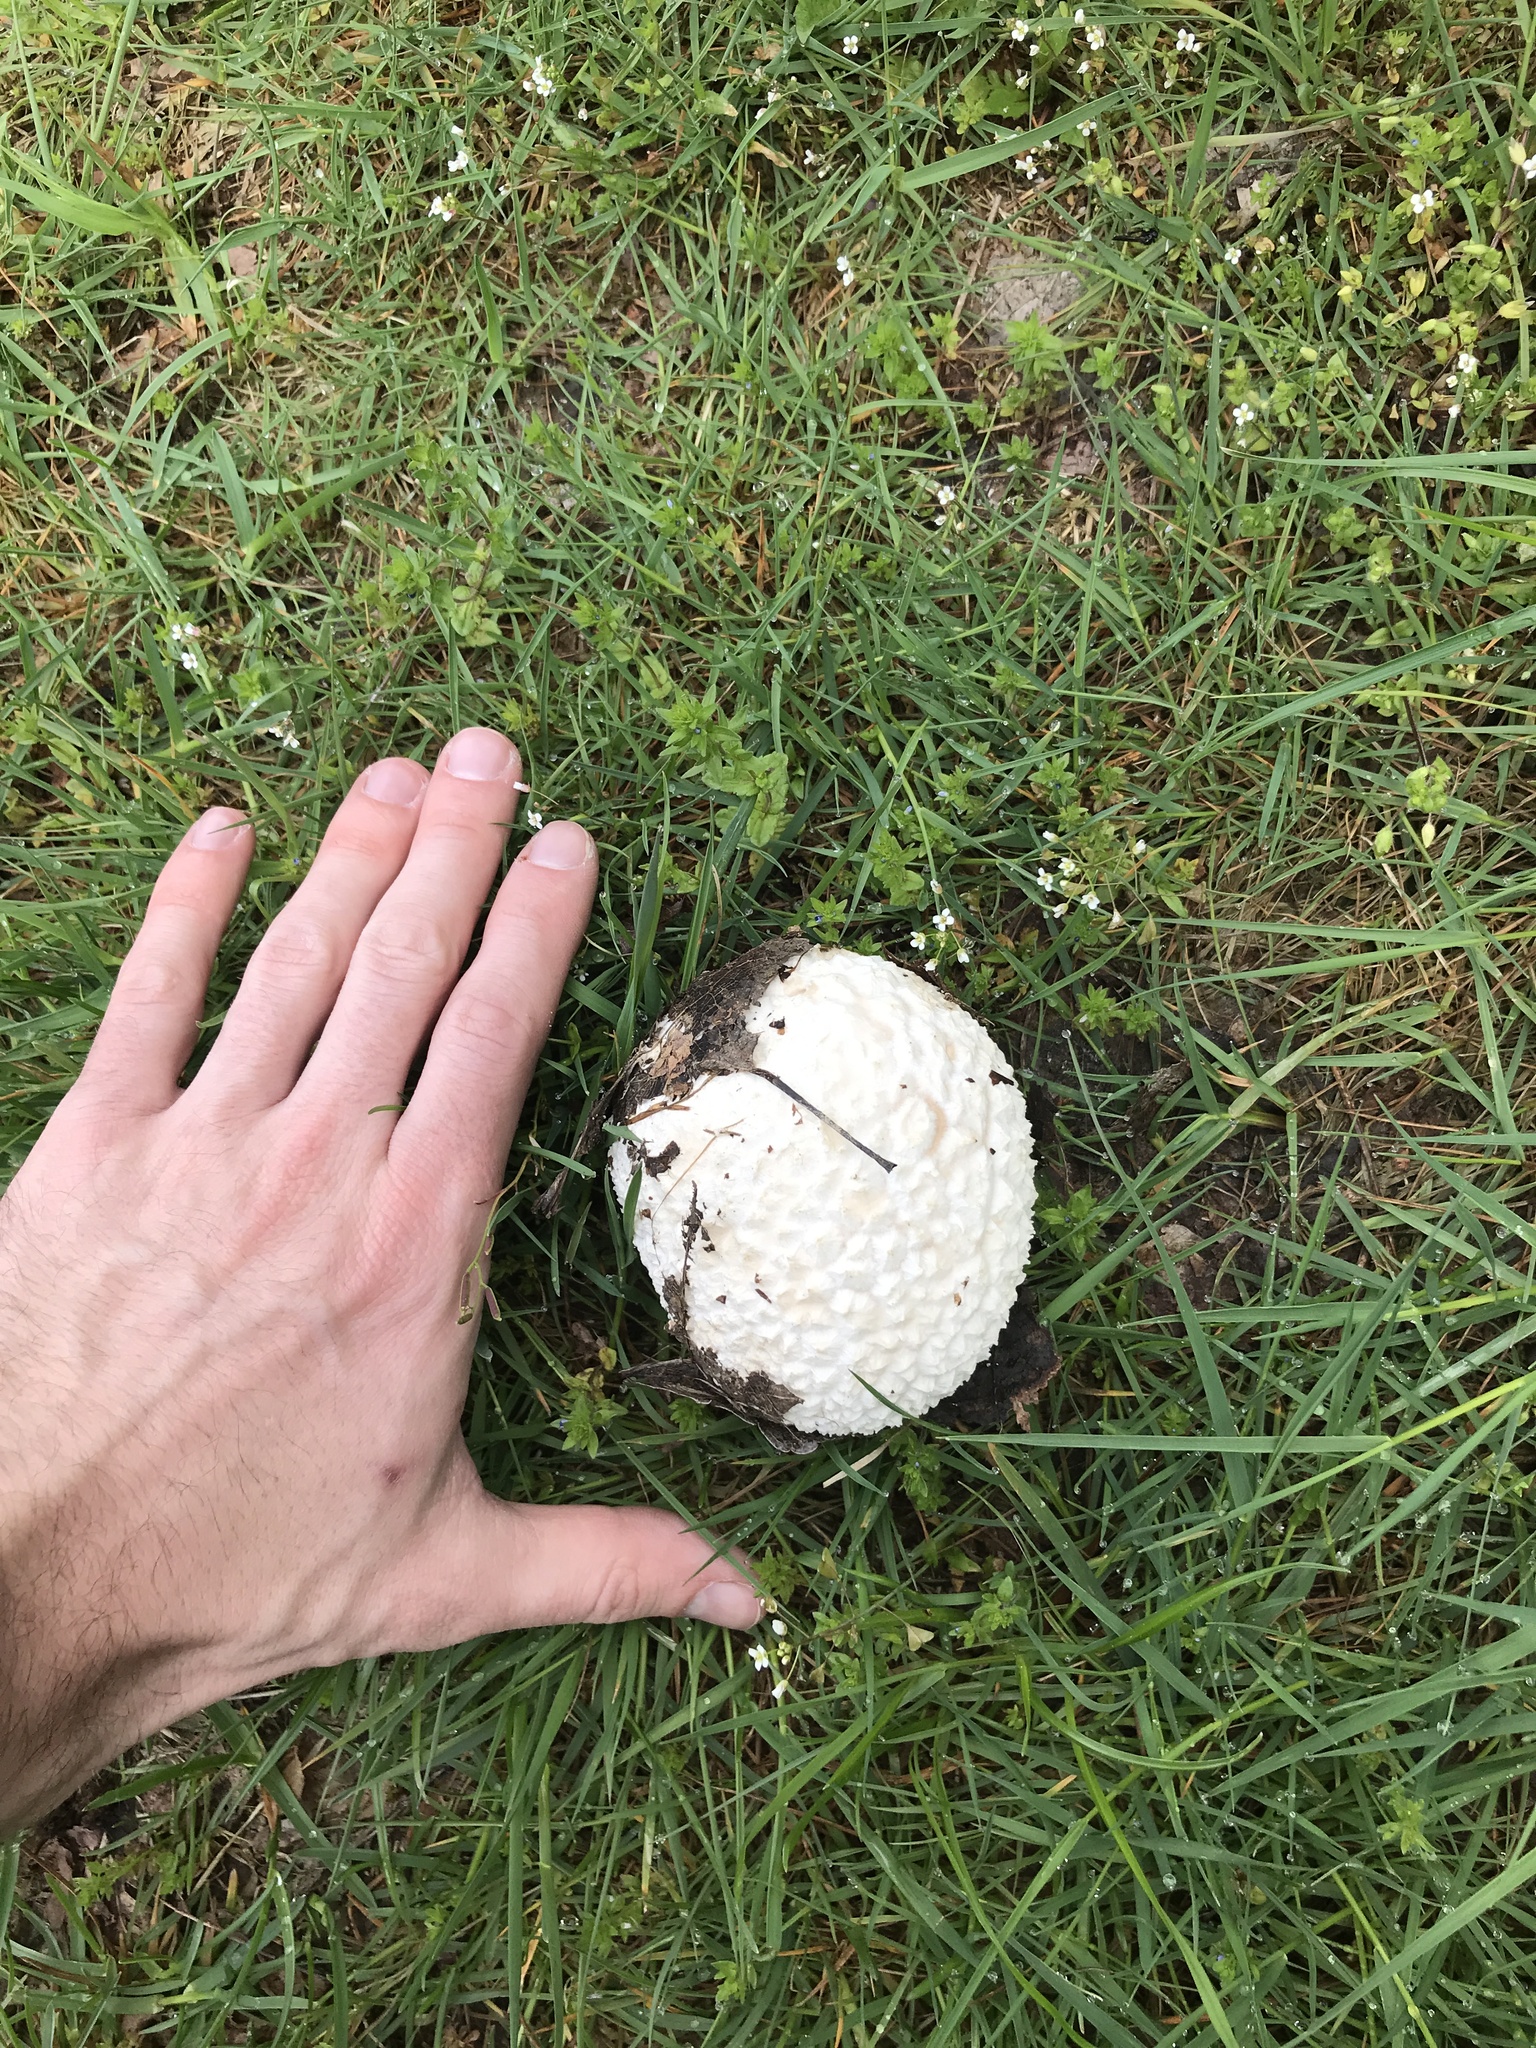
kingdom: Fungi
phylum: Basidiomycota
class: Agaricomycetes
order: Agaricales
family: Lycoperdaceae
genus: Bovistella
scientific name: Bovistella utriformis
